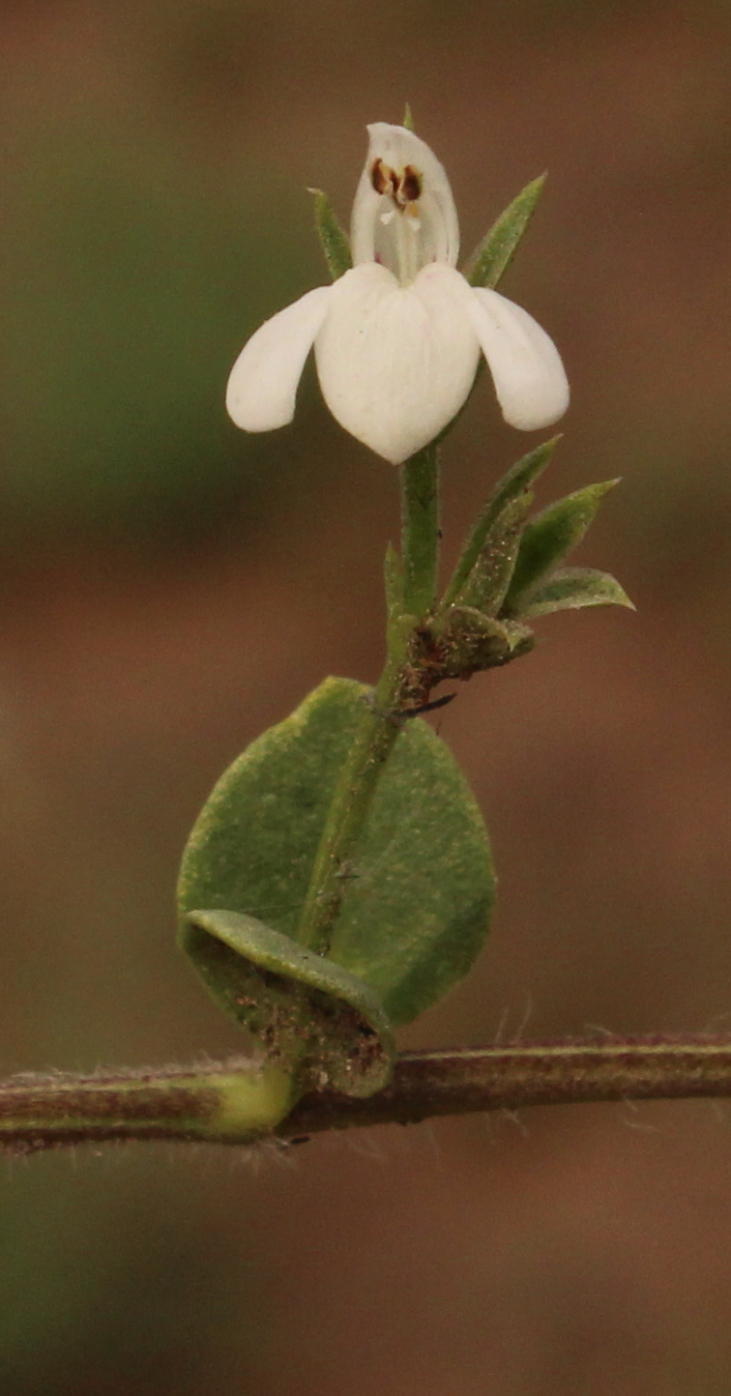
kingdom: Plantae
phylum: Tracheophyta
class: Magnoliopsida
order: Lamiales
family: Acanthaceae
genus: Justicia
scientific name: Justicia anagalloides
